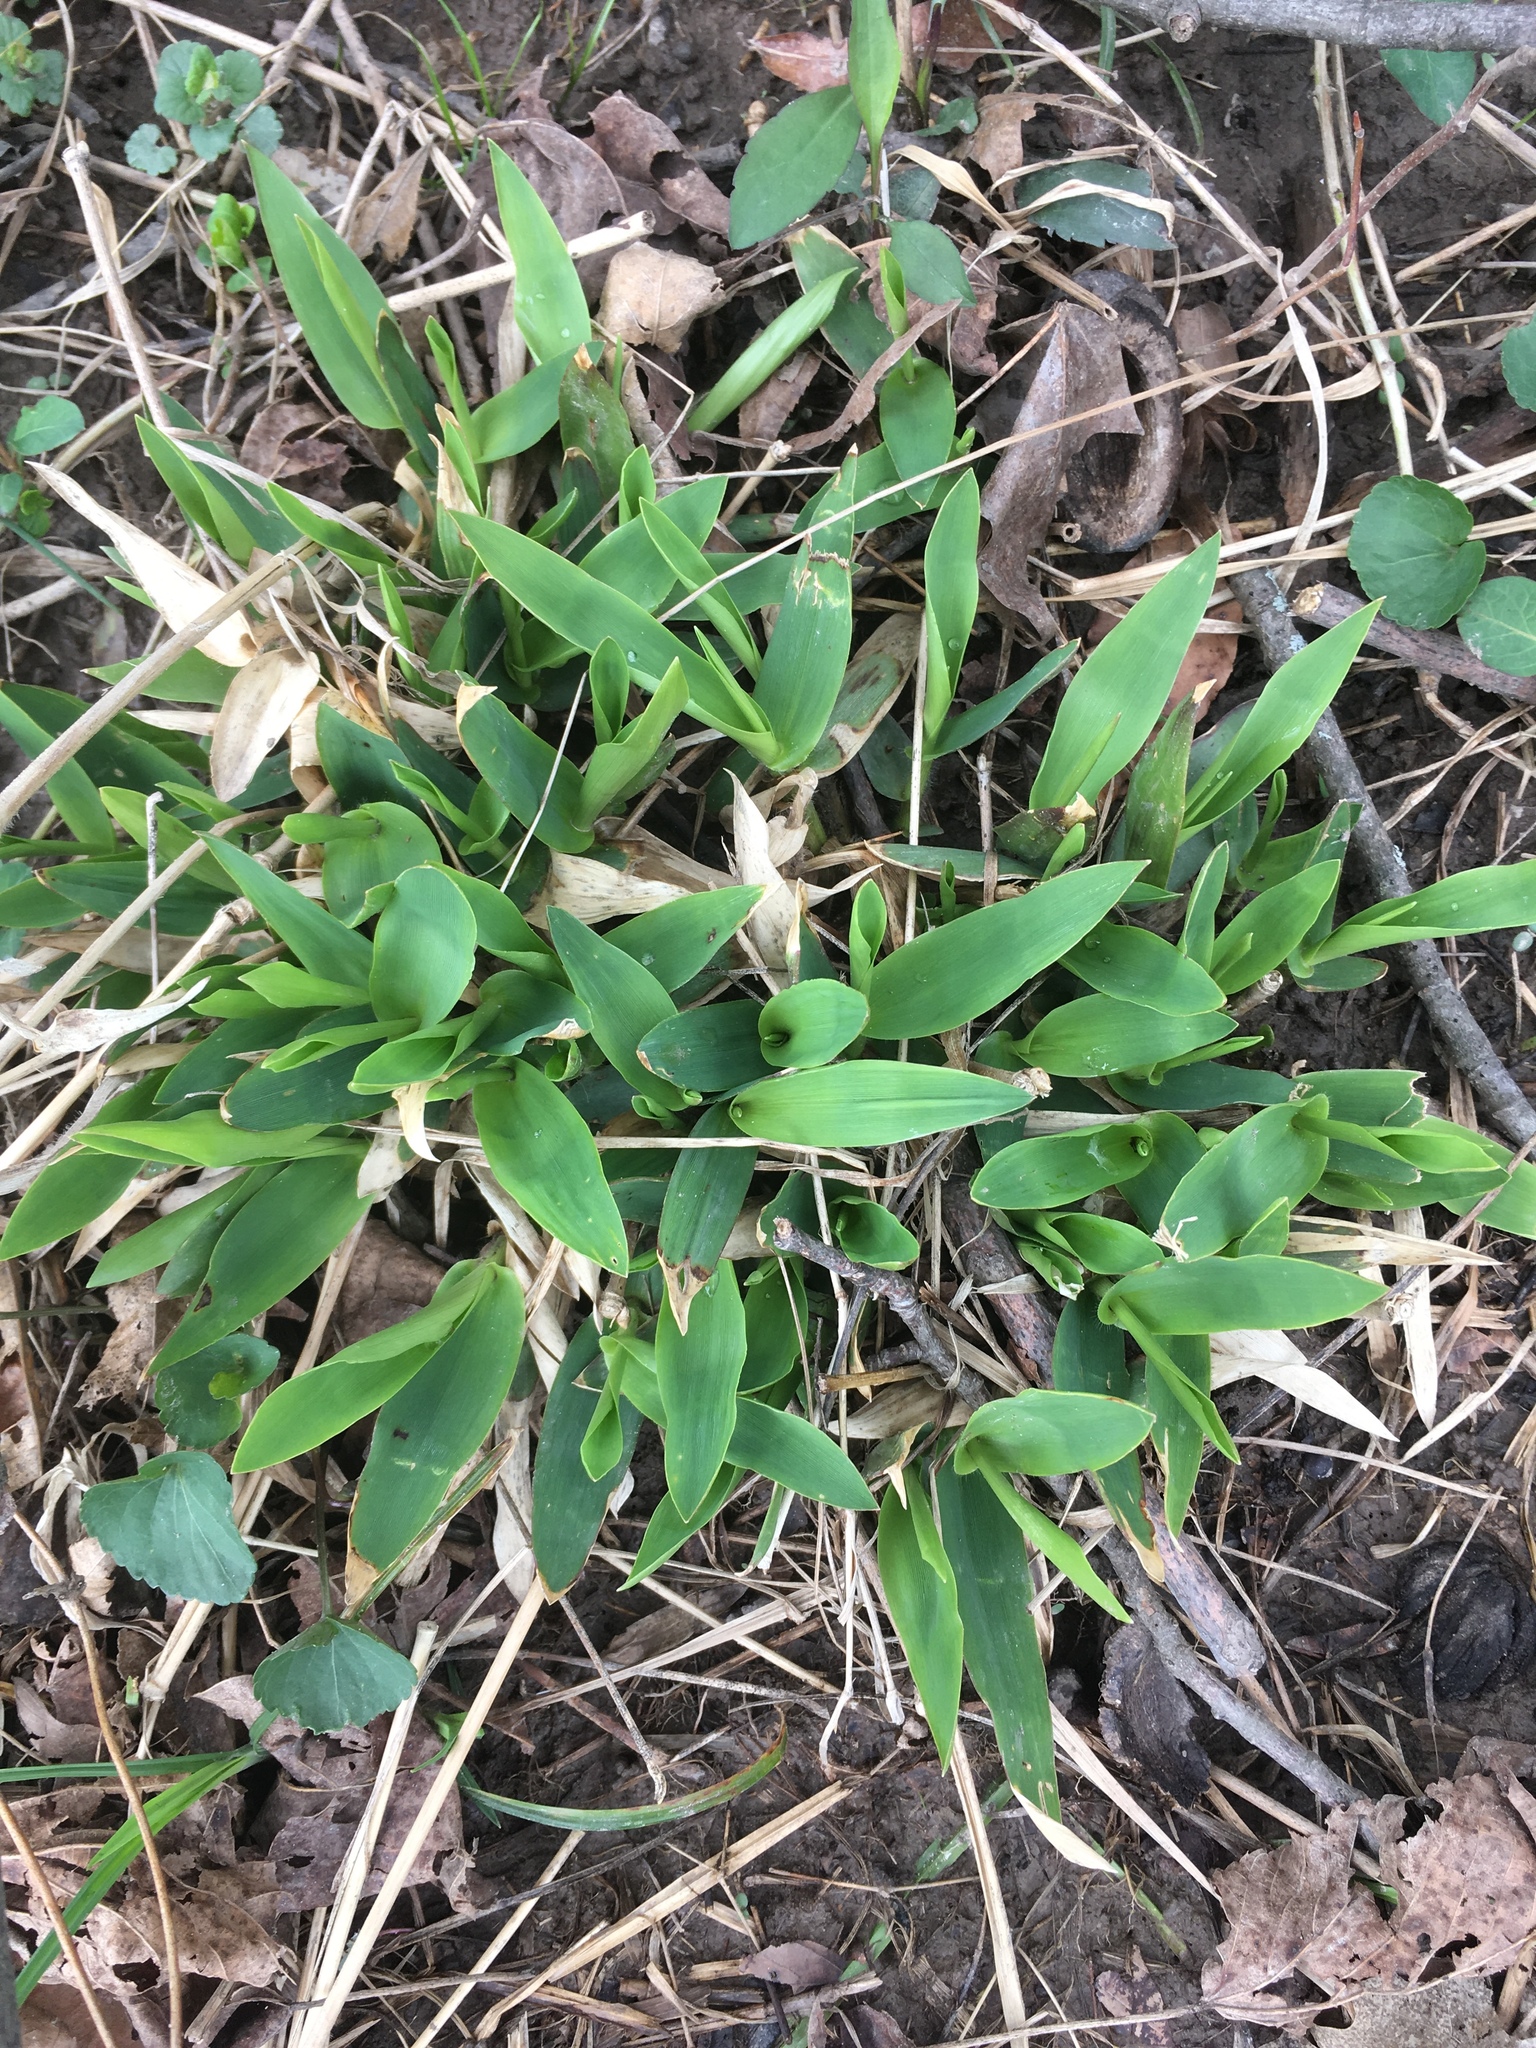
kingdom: Plantae
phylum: Tracheophyta
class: Liliopsida
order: Poales
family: Poaceae
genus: Dichanthelium
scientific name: Dichanthelium clandestinum
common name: Deer-tongue grass
